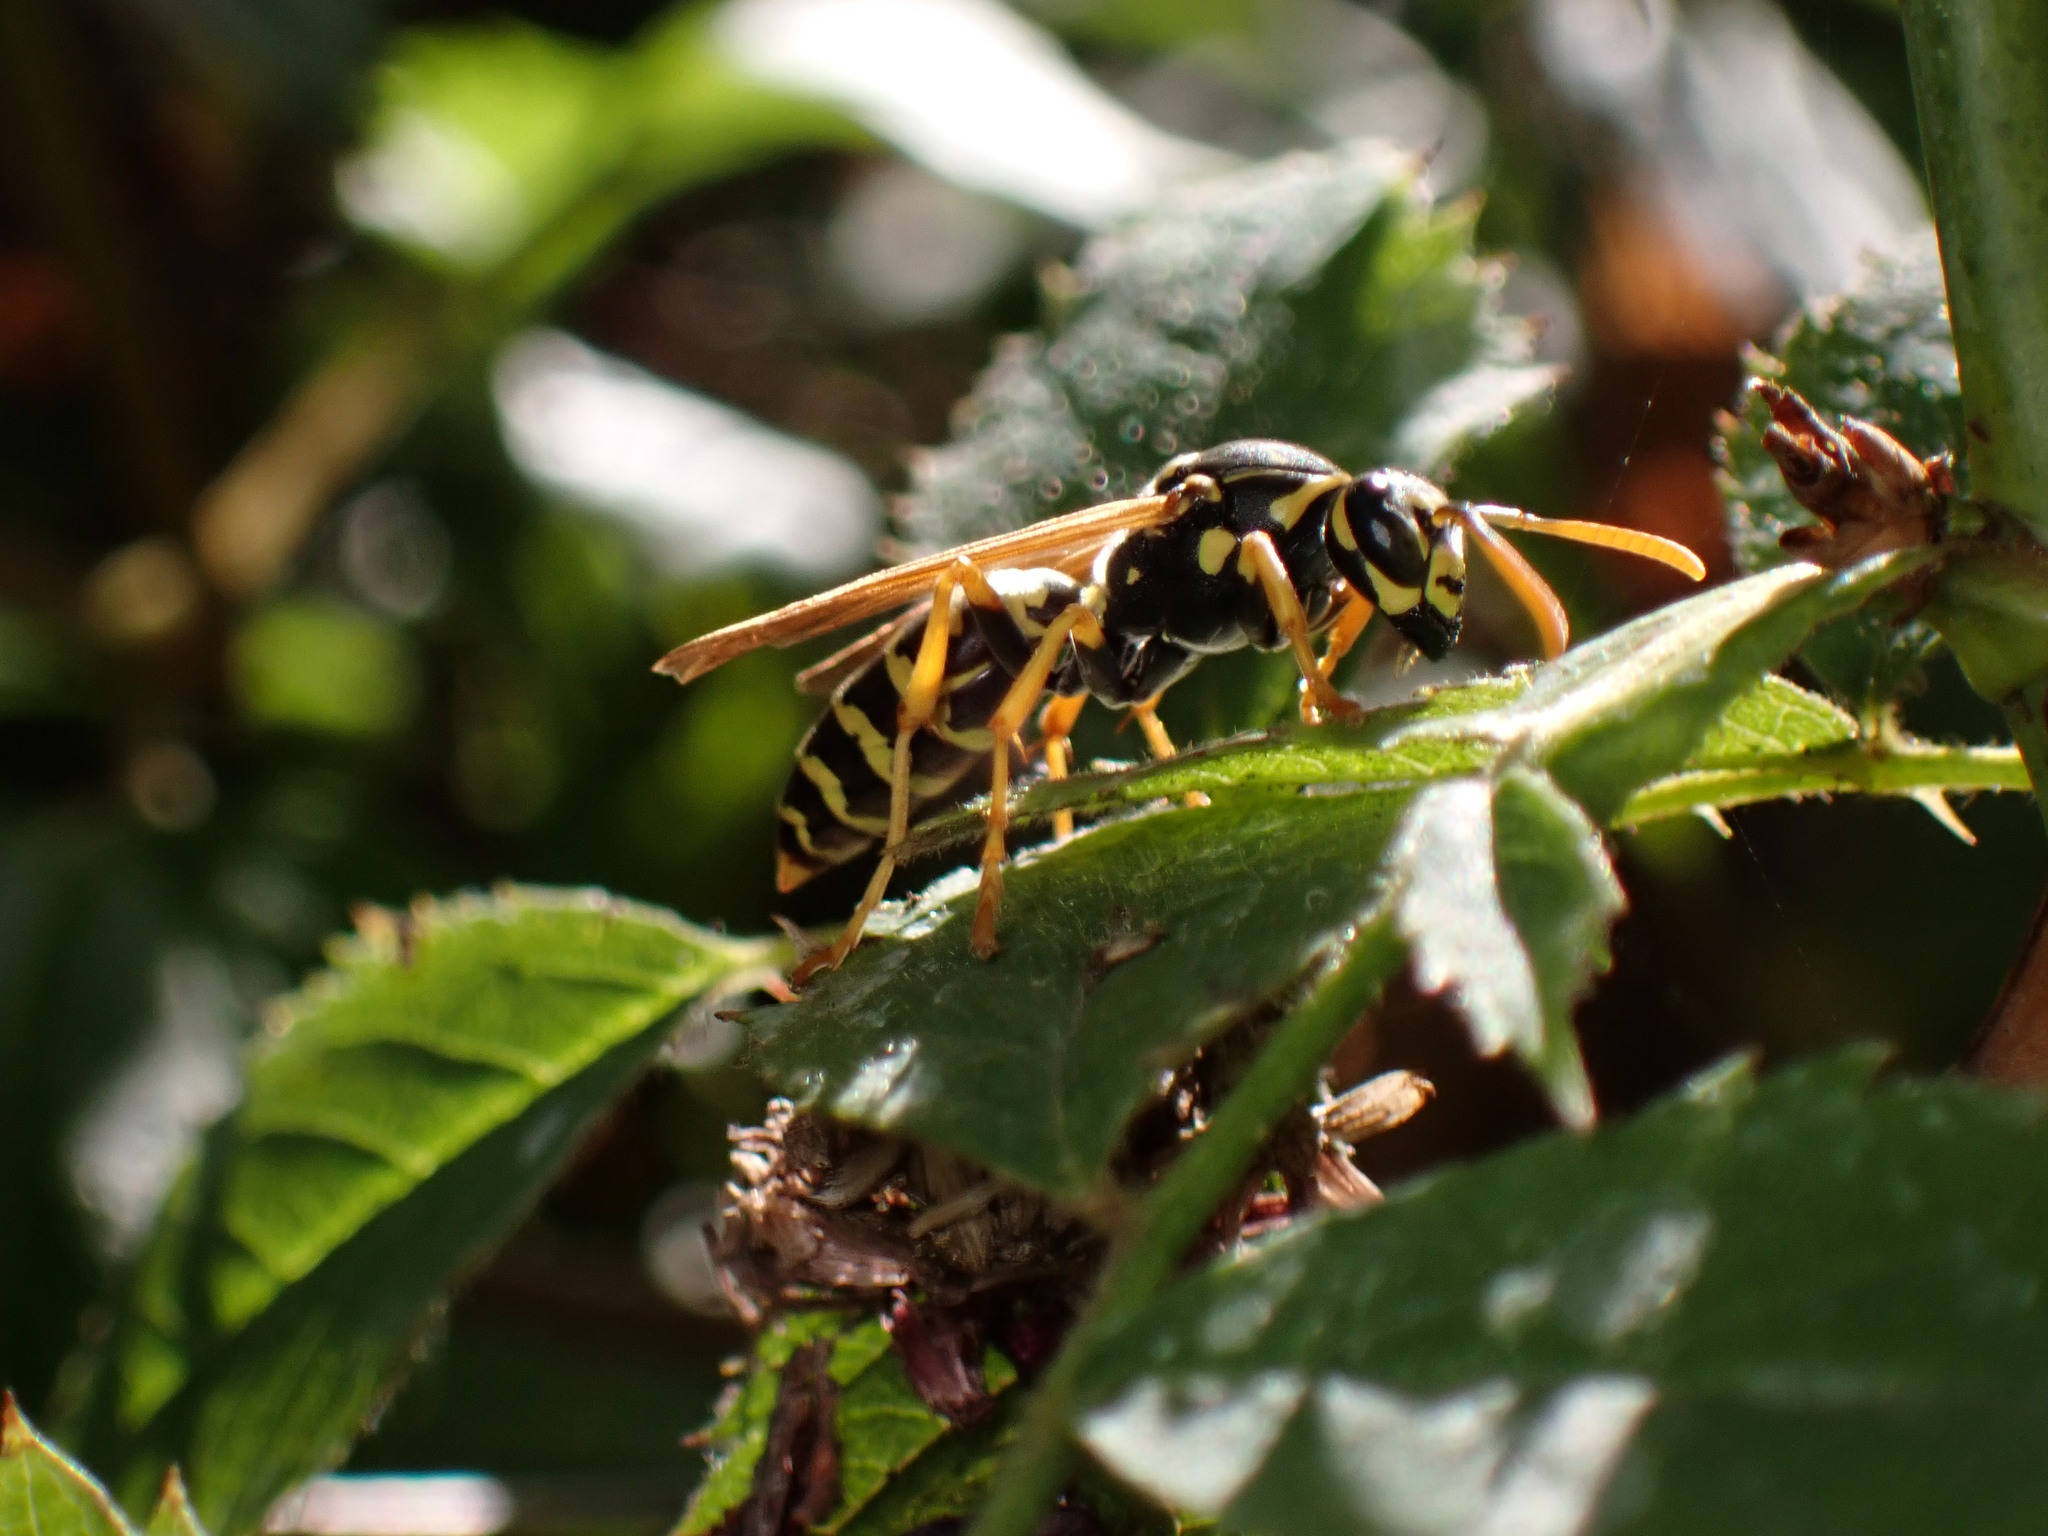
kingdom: Animalia
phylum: Arthropoda
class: Insecta
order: Hymenoptera
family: Eumenidae
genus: Polistes
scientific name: Polistes dominula
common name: Paper wasp
